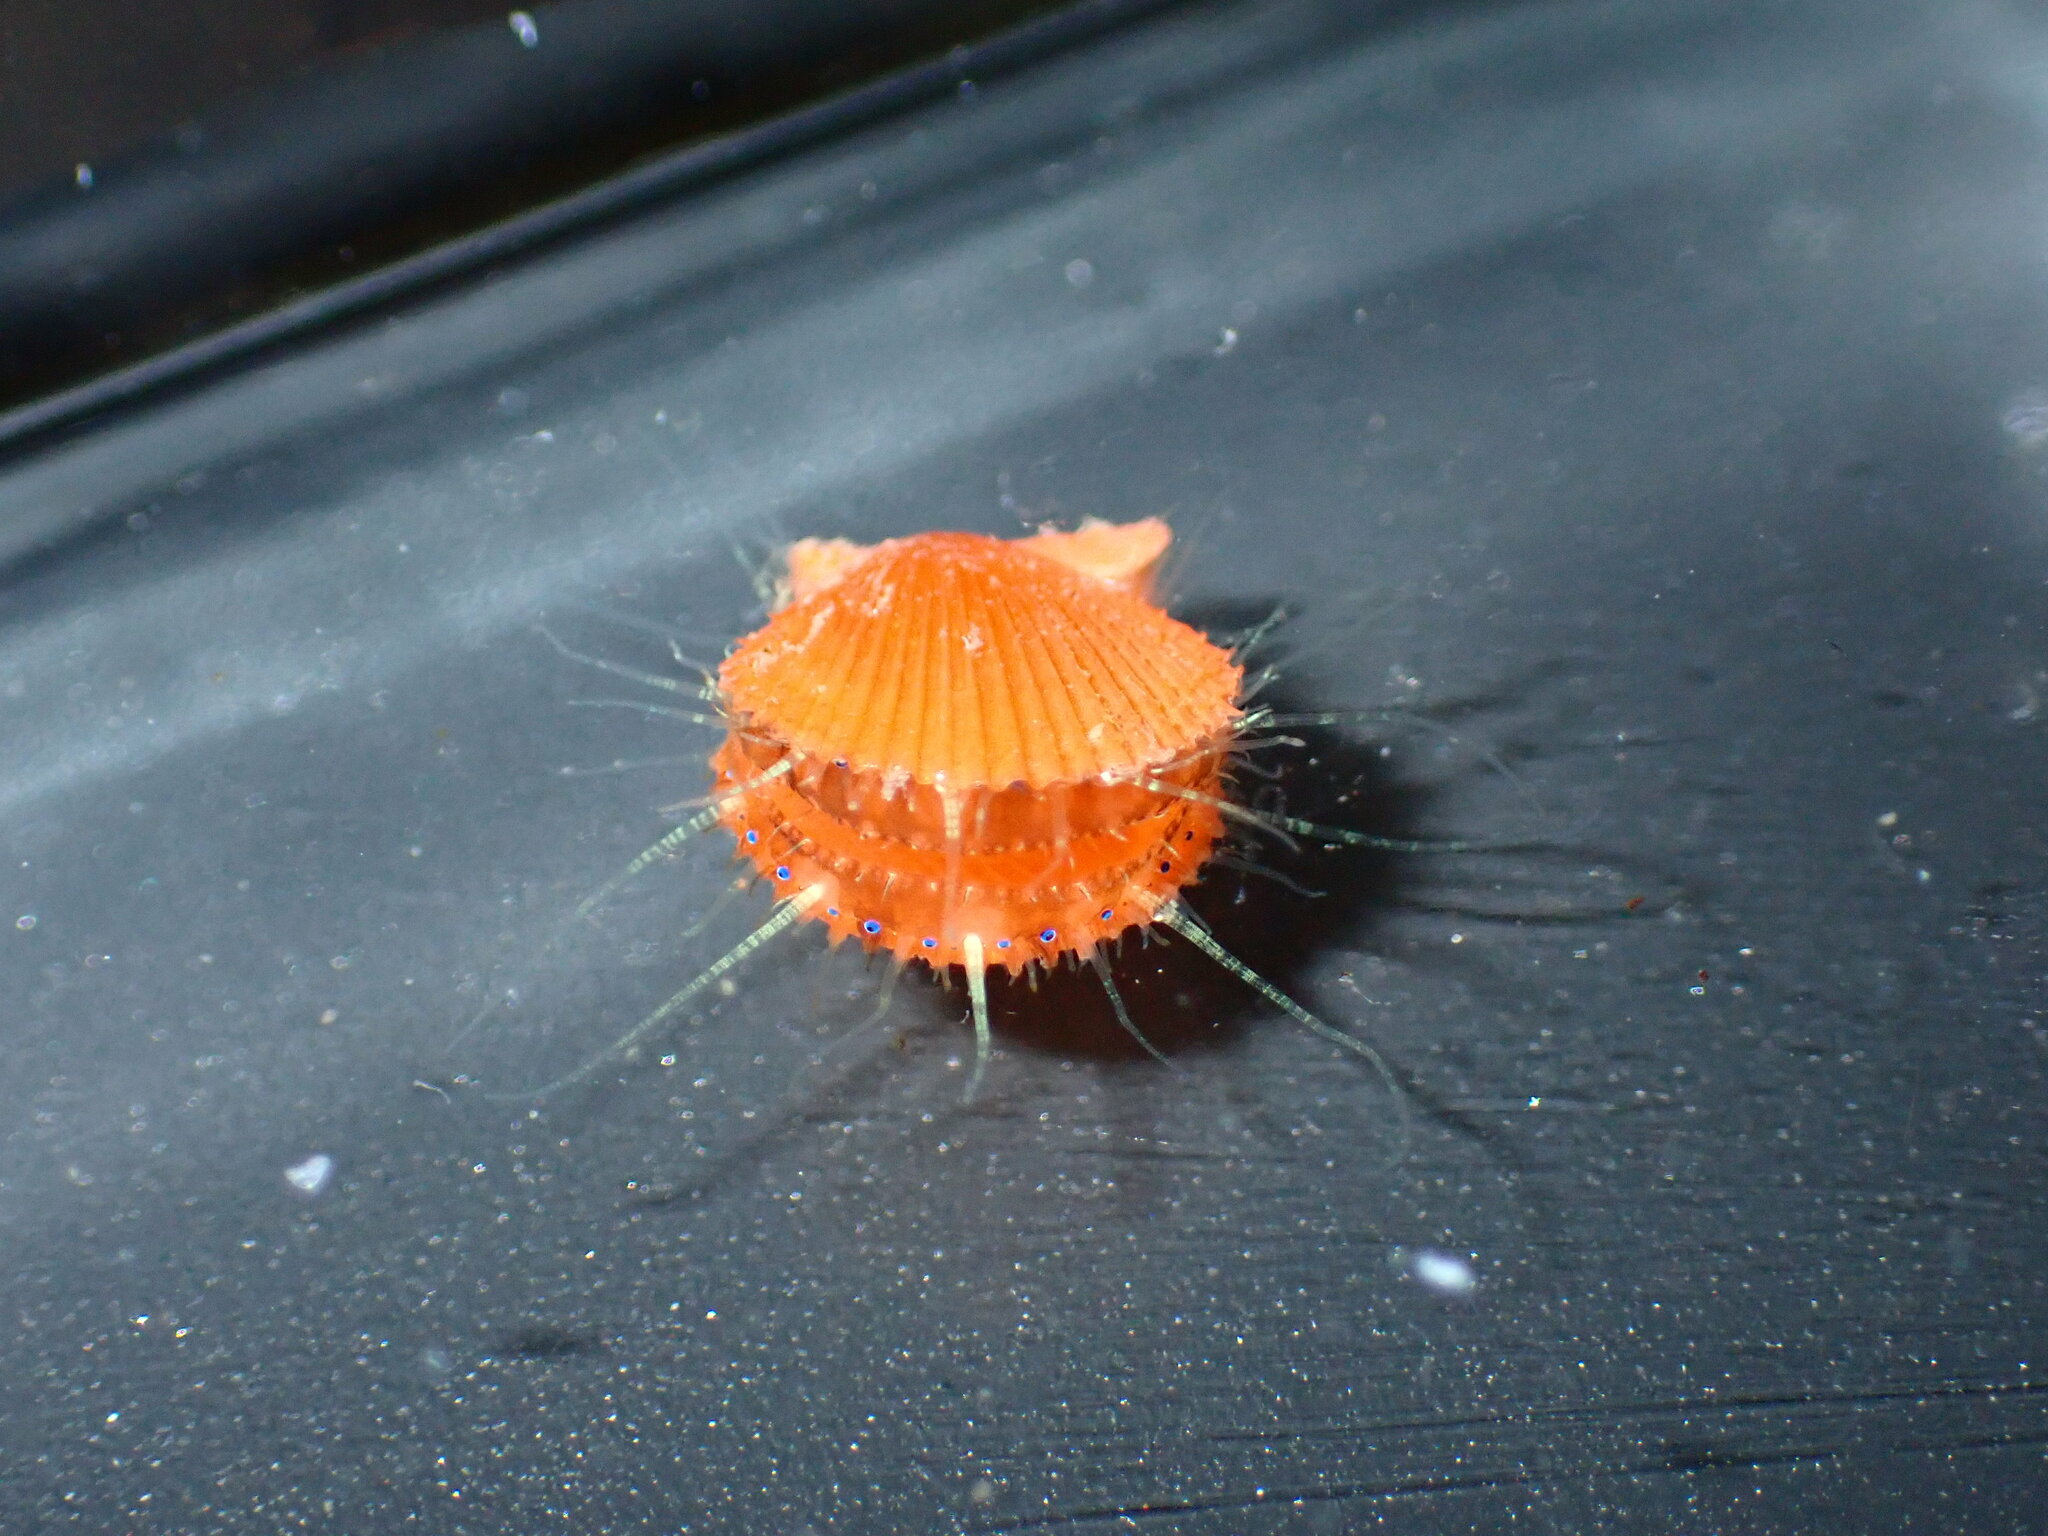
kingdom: Animalia
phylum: Mollusca
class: Bivalvia
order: Pectinida
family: Pectinidae
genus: Mimachlamys
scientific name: Mimachlamys asperrima
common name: Austral scallop
